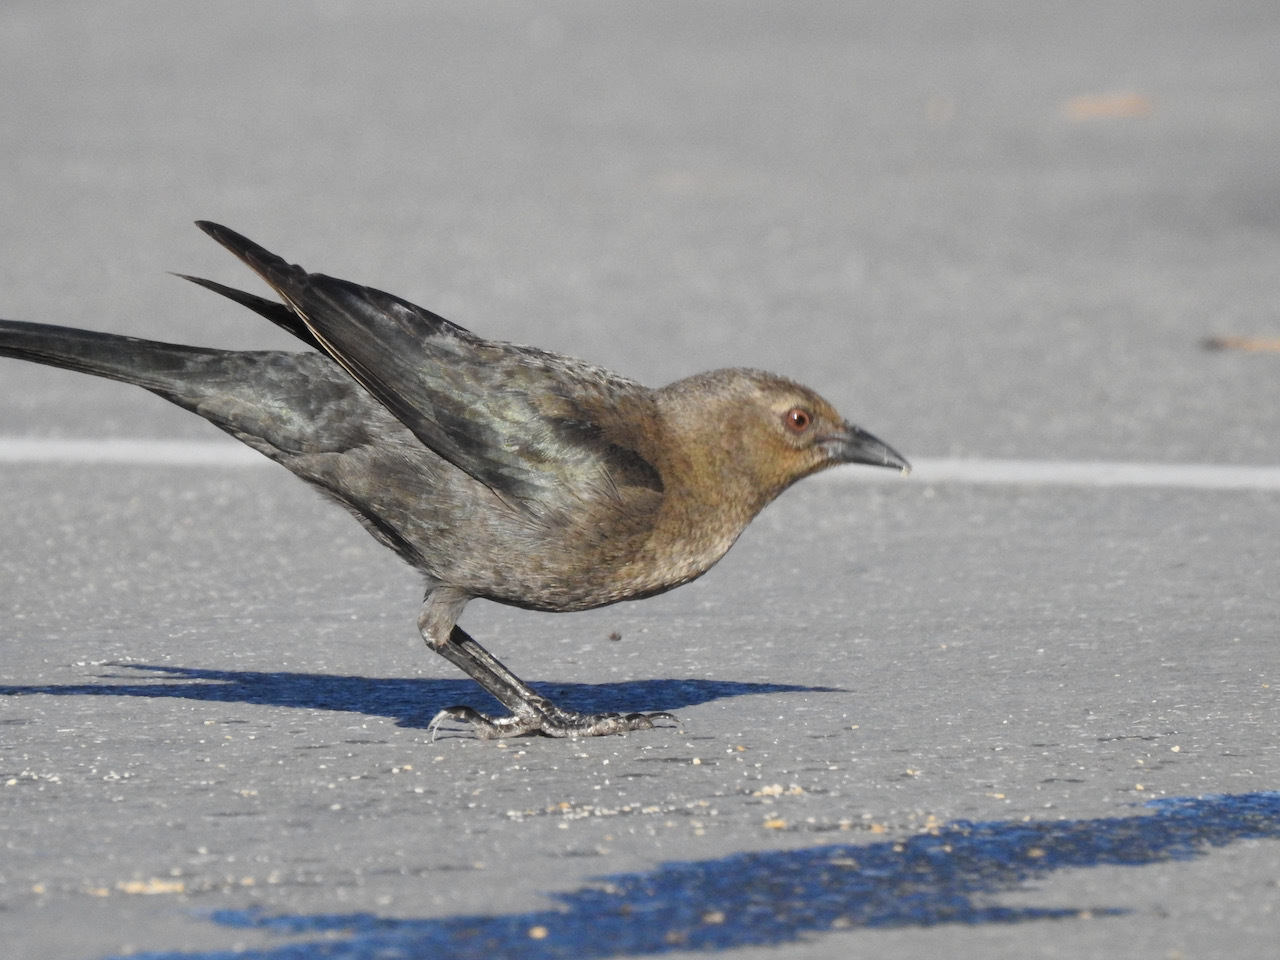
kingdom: Animalia
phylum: Chordata
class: Aves
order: Passeriformes
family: Icteridae
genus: Euphagus
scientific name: Euphagus cyanocephalus
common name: Brewer's blackbird
